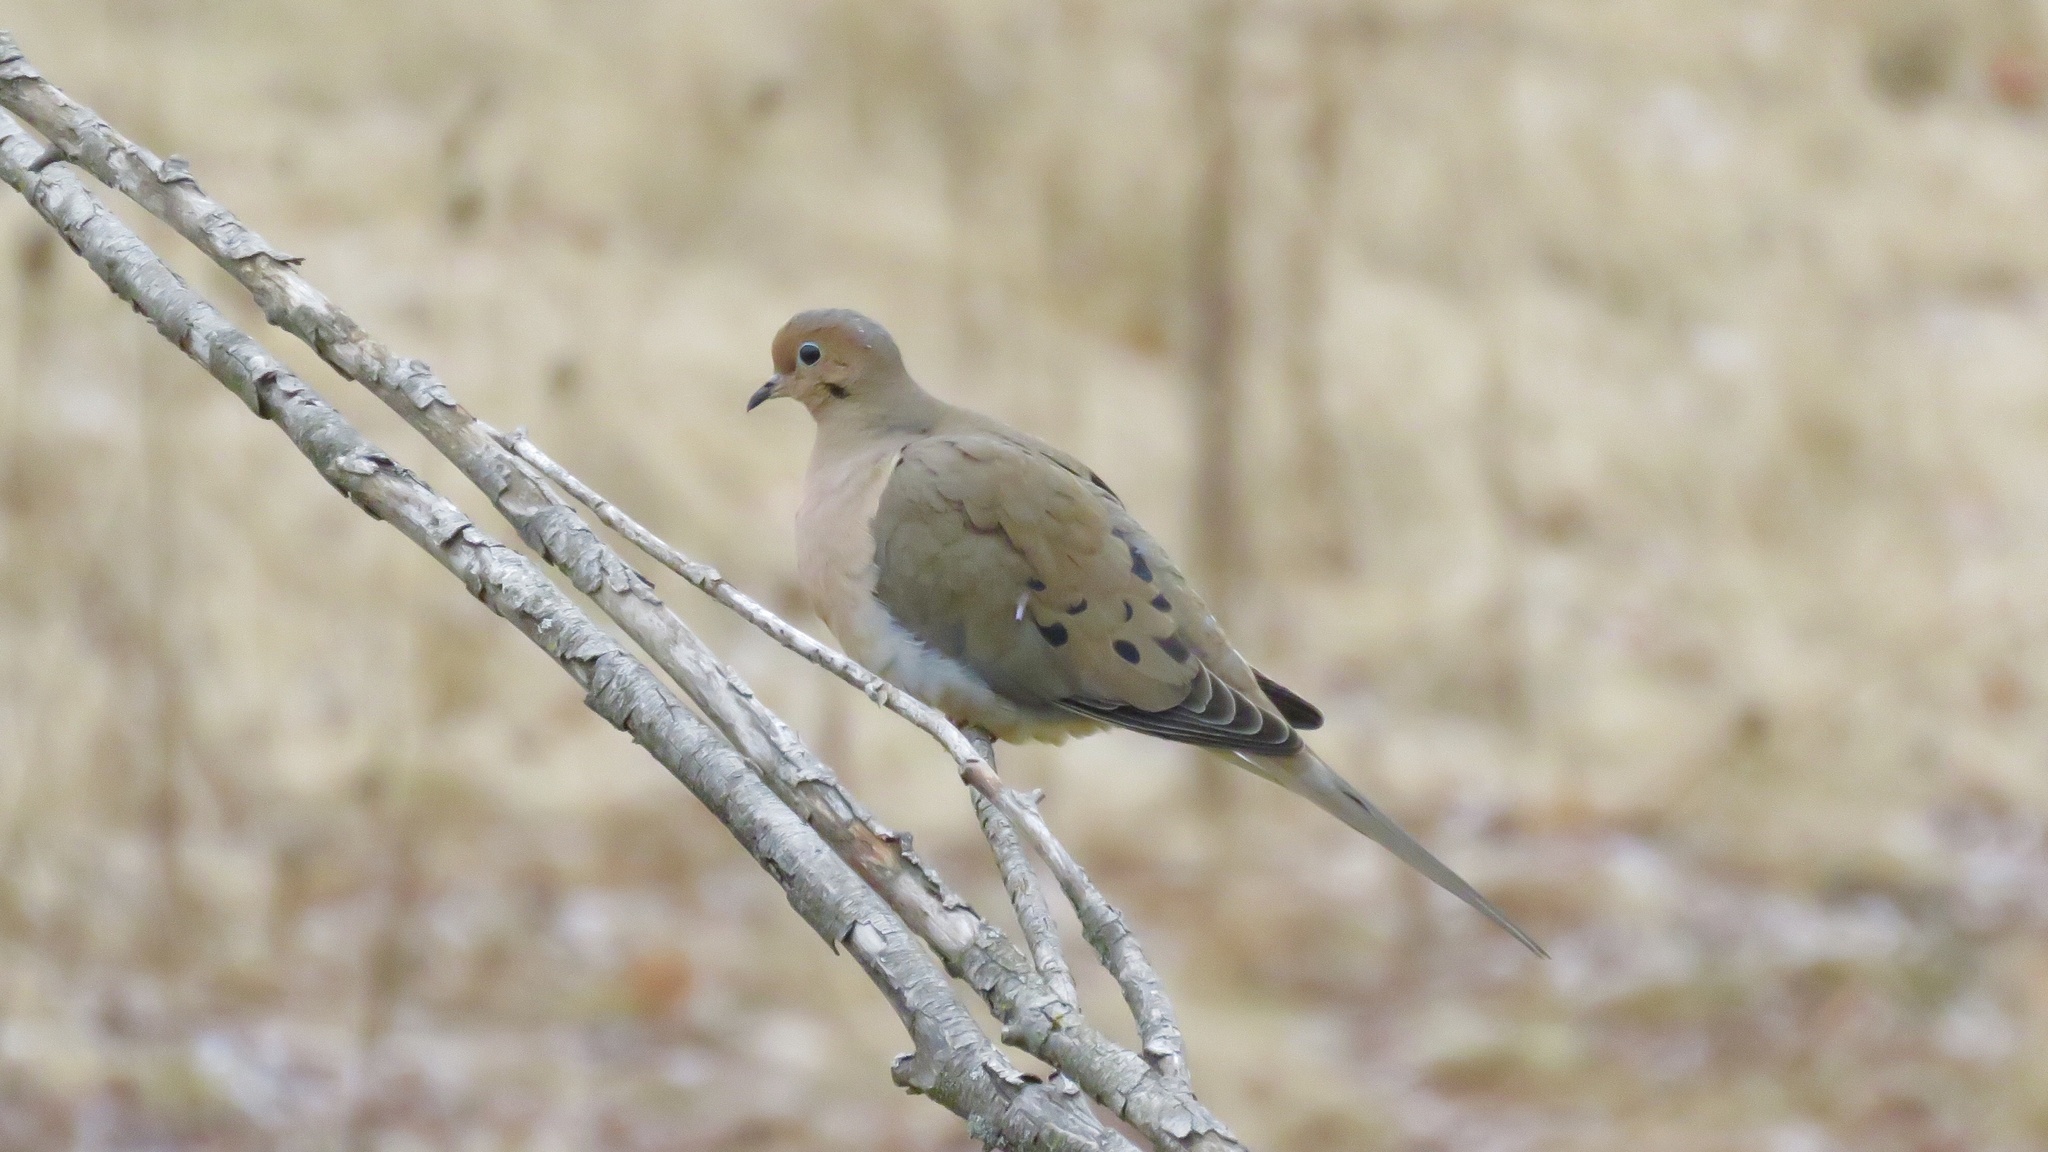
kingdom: Animalia
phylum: Chordata
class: Aves
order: Columbiformes
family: Columbidae
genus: Zenaida
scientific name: Zenaida macroura
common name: Mourning dove
